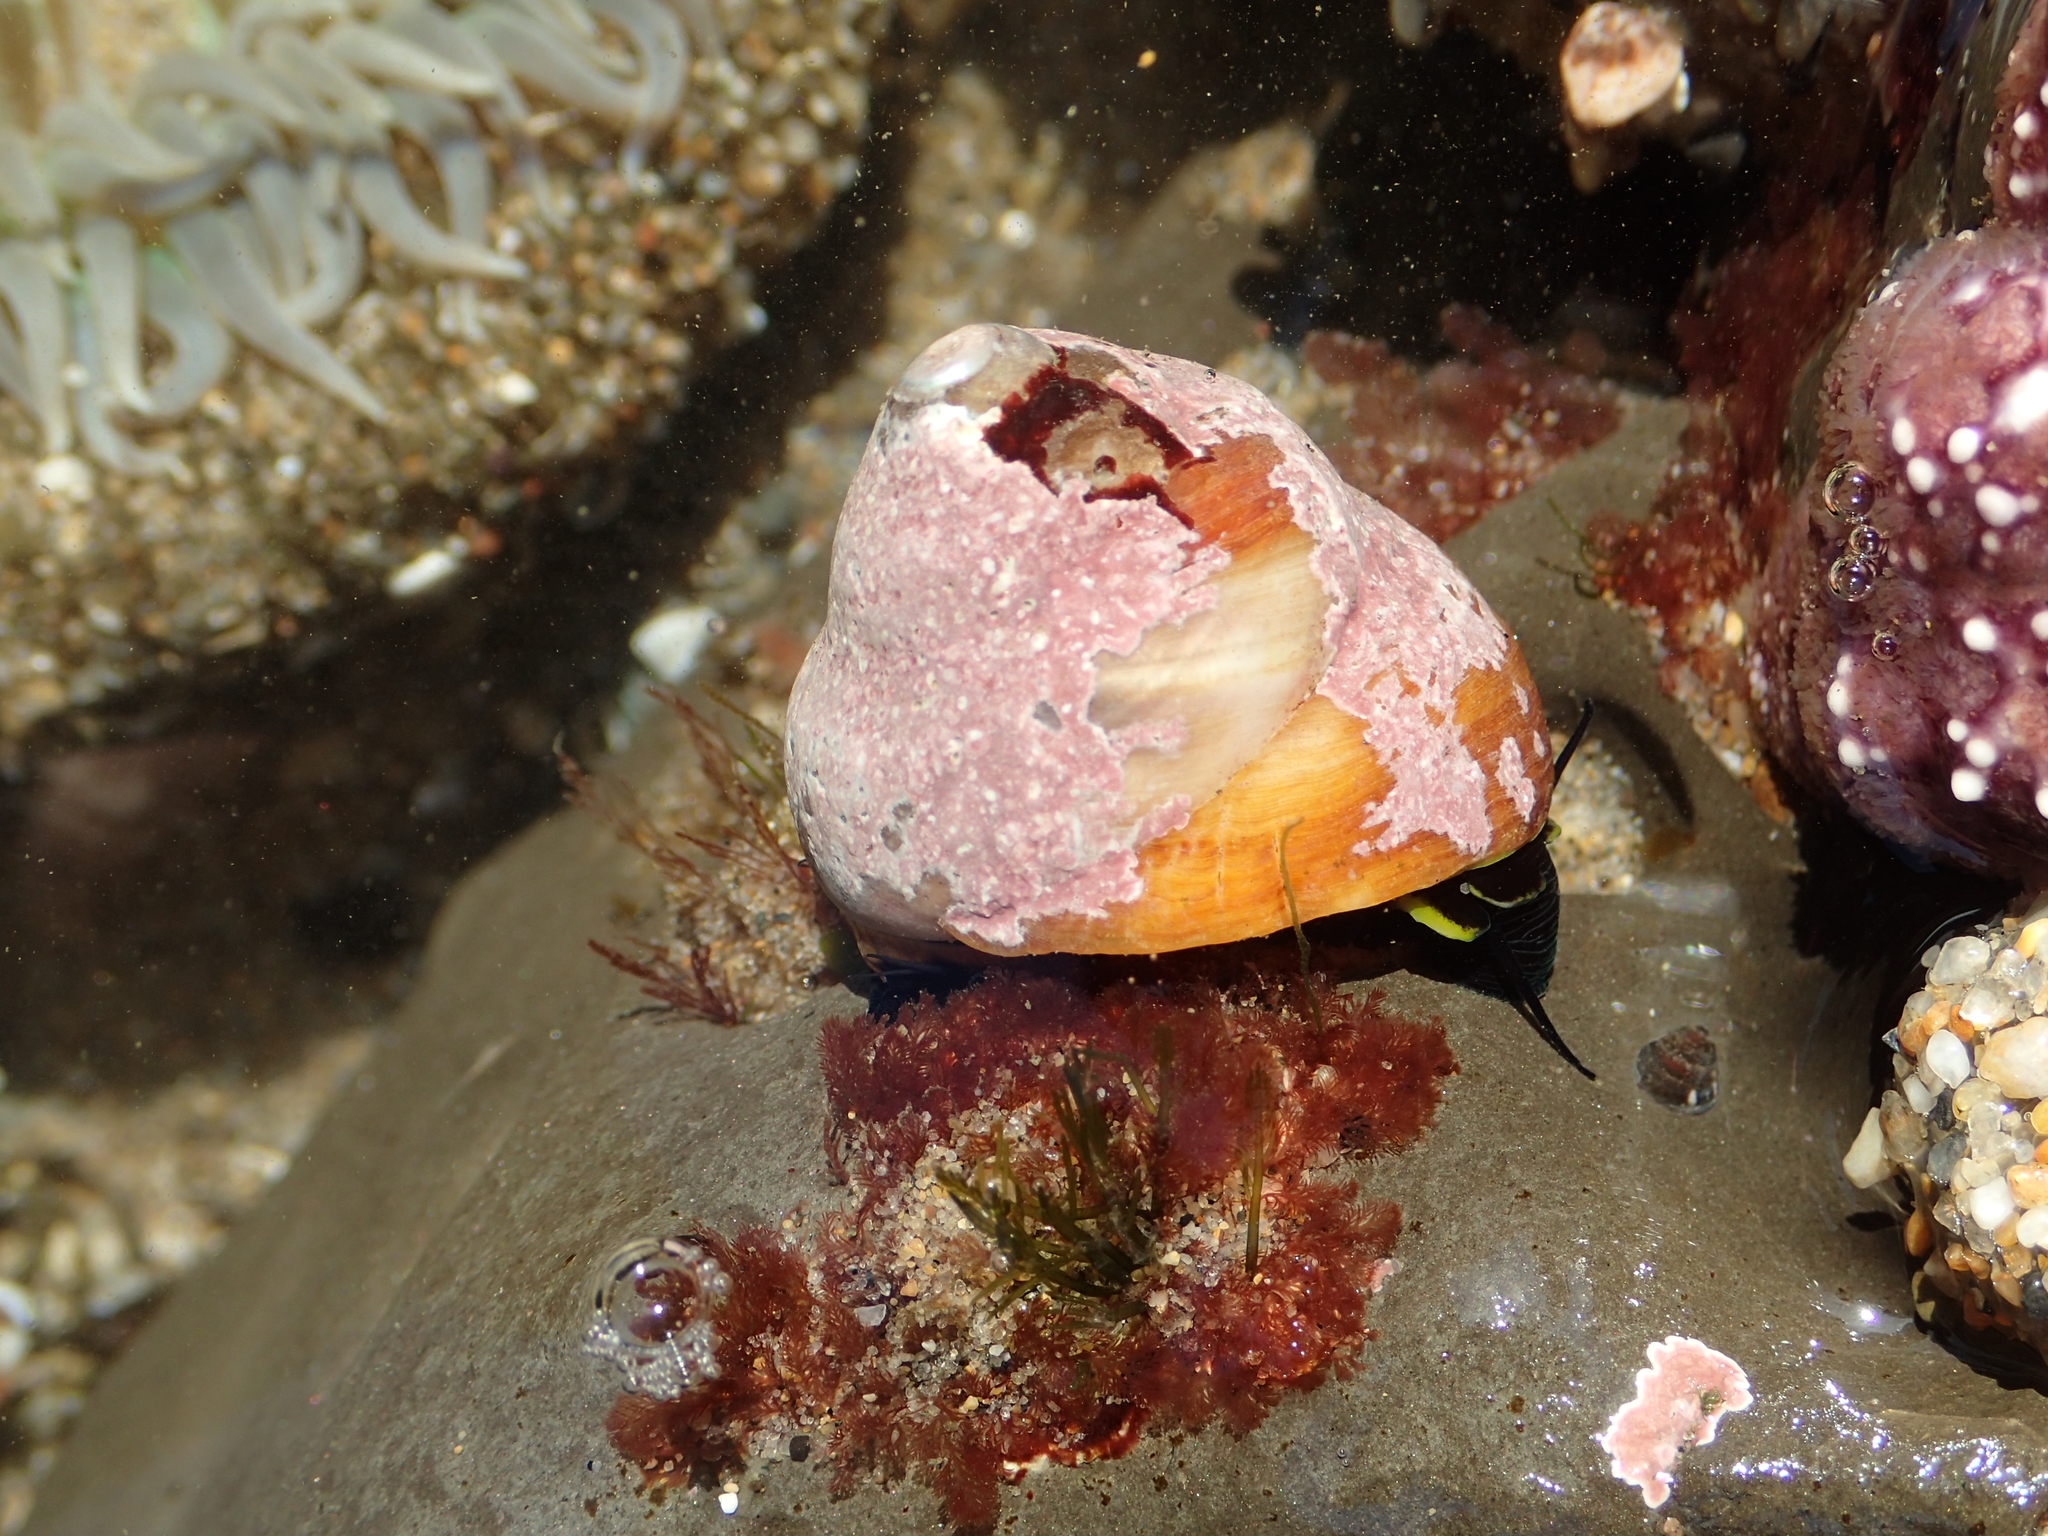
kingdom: Animalia
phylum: Mollusca
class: Gastropoda
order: Trochida
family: Tegulidae
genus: Tegula
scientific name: Tegula brunnea
